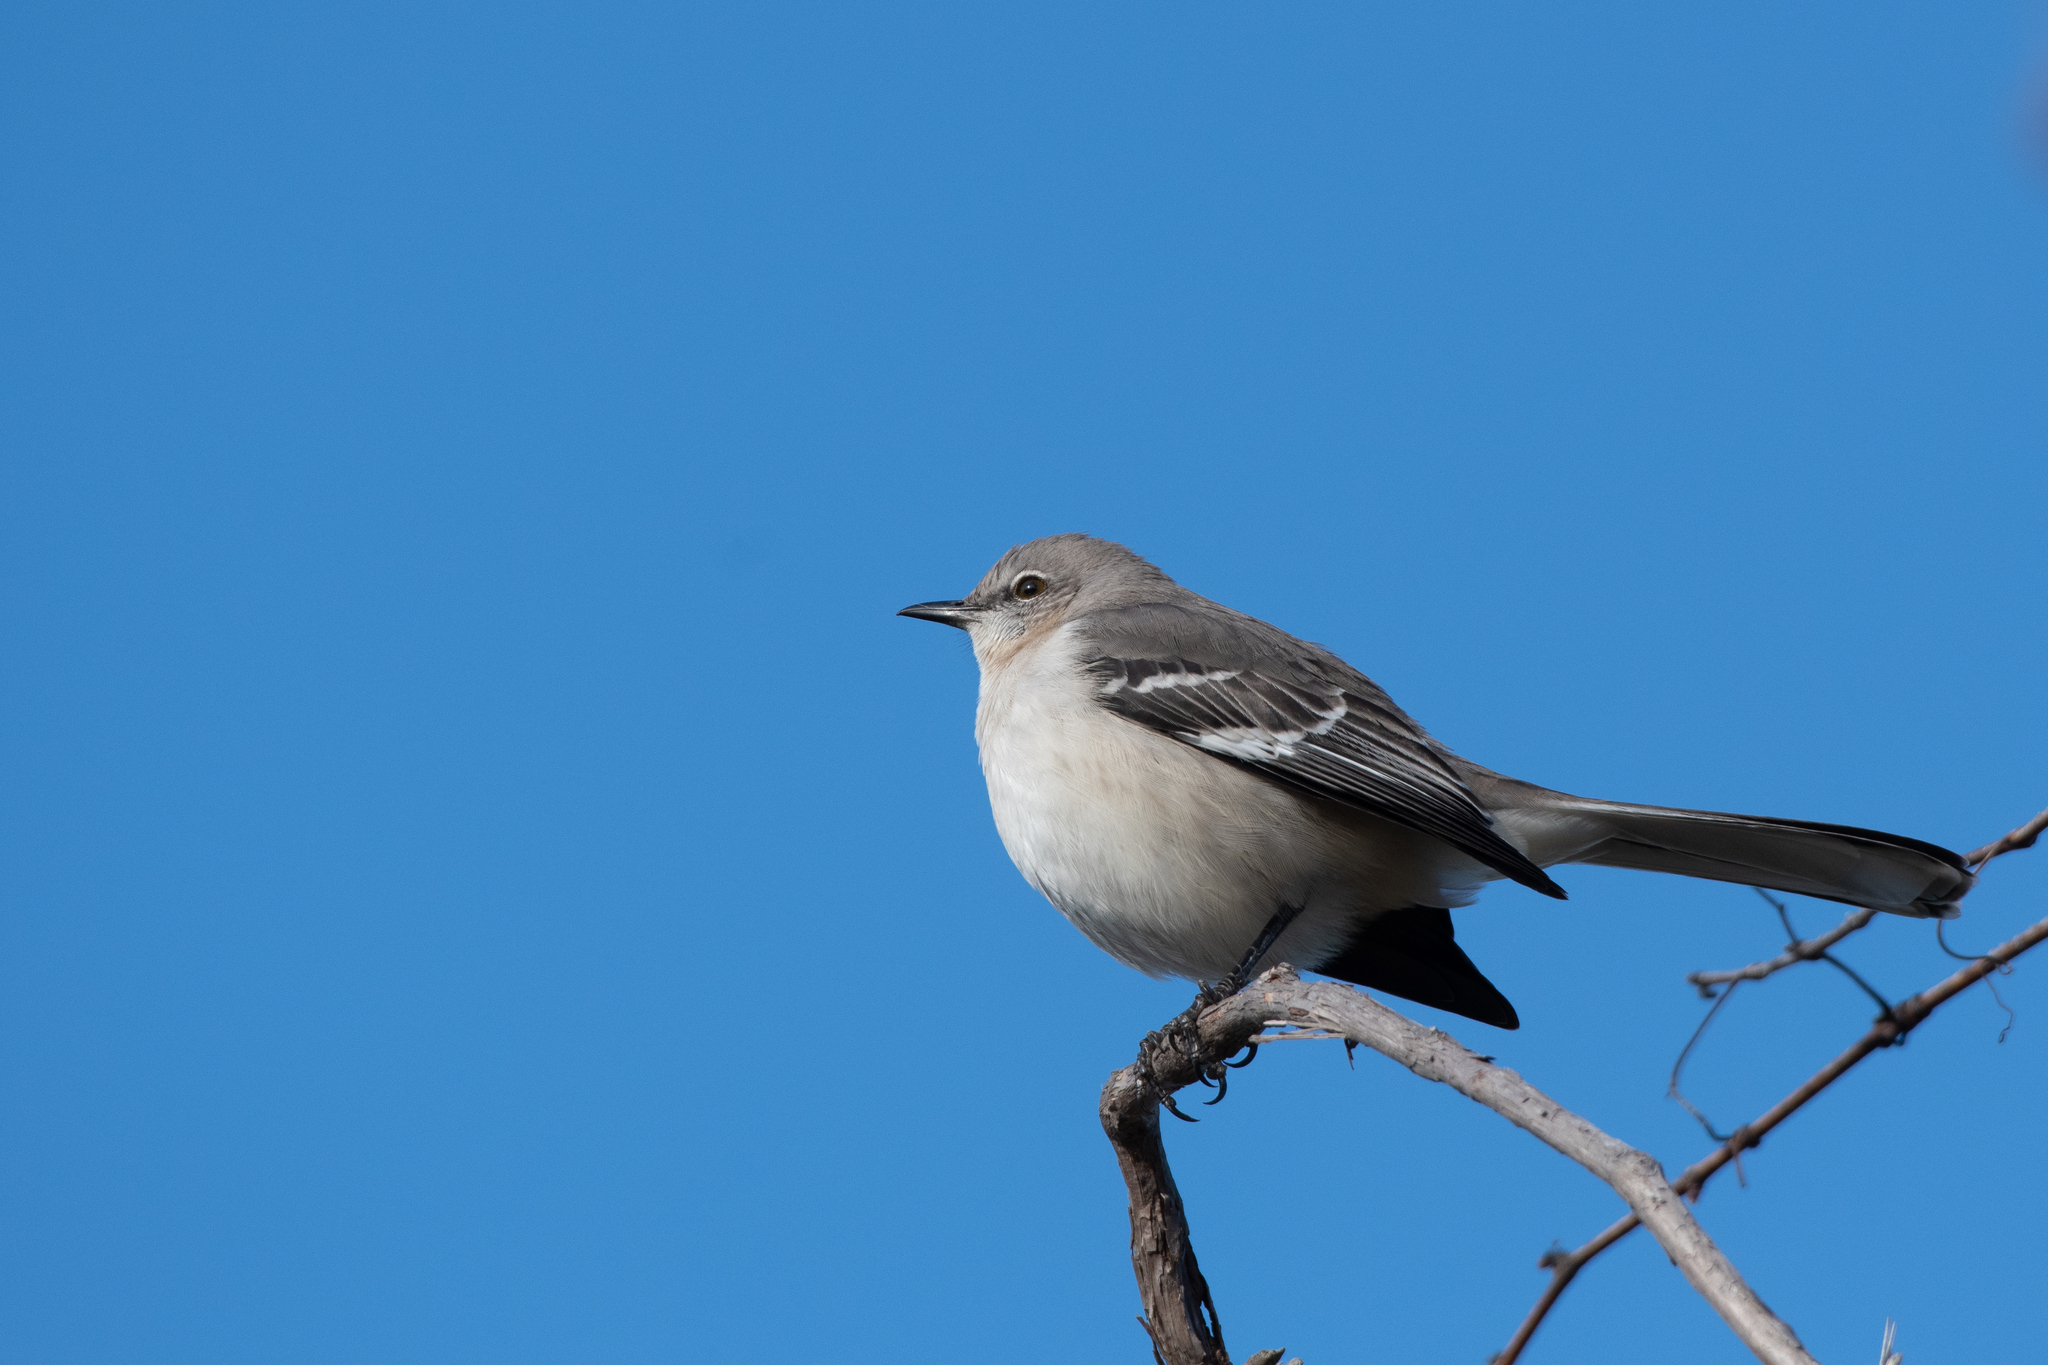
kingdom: Animalia
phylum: Chordata
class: Aves
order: Passeriformes
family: Mimidae
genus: Mimus
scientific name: Mimus polyglottos
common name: Northern mockingbird
